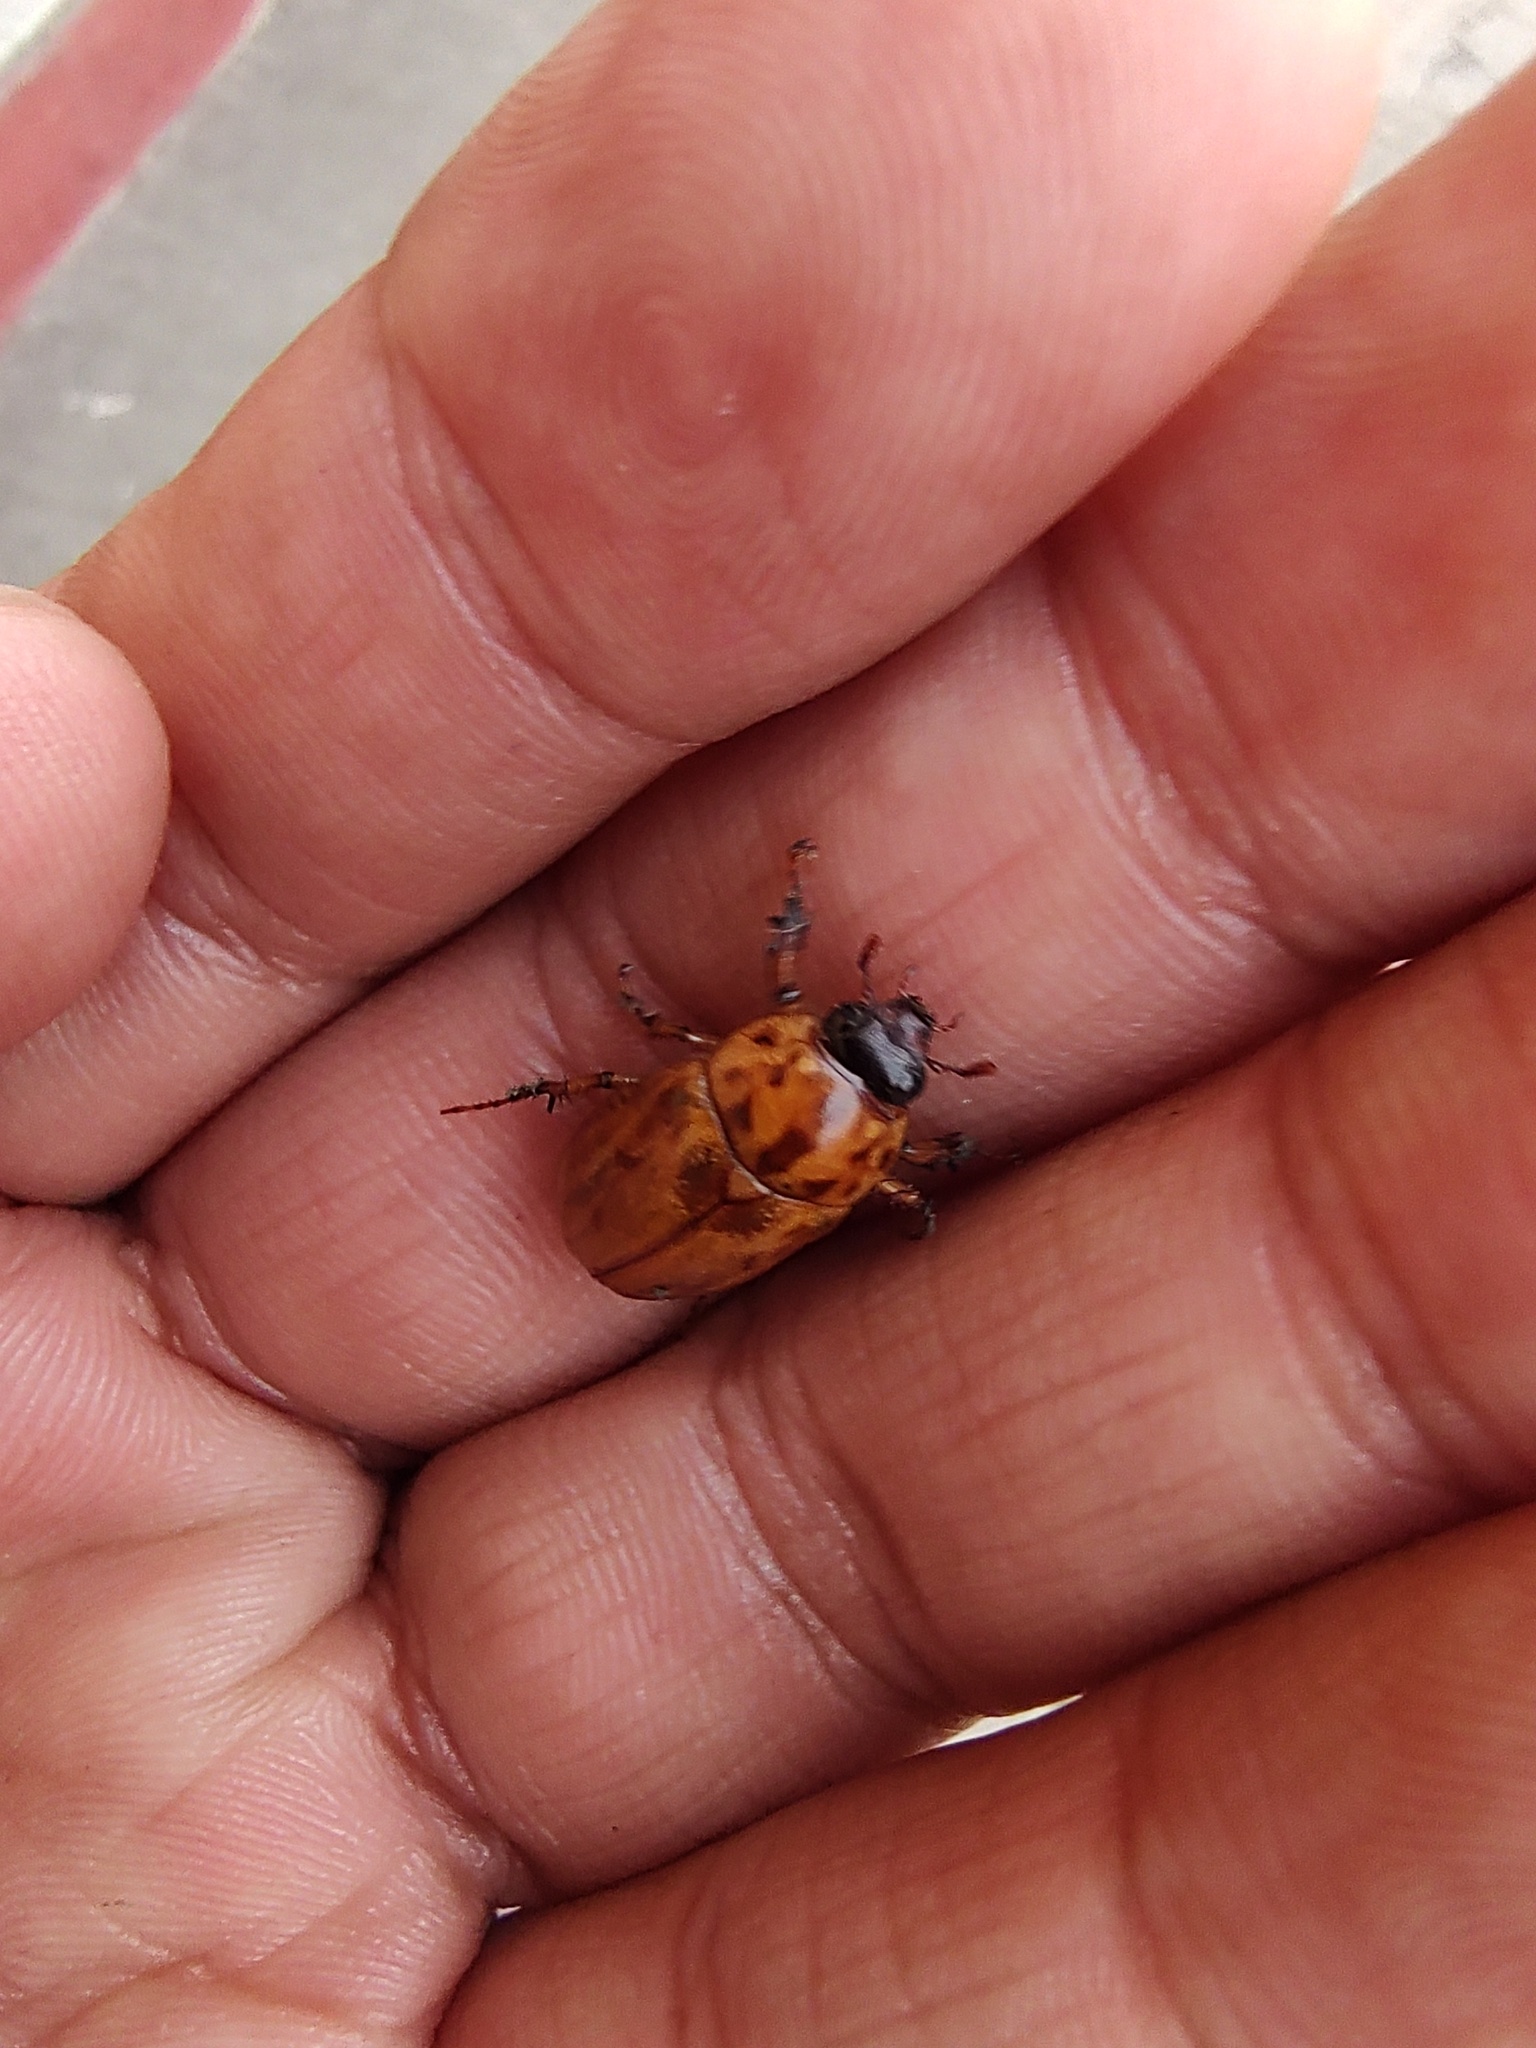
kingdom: Animalia
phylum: Arthropoda
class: Insecta
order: Coleoptera
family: Scarabaeidae
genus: Cyclocephala
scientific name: Cyclocephala lunulata
